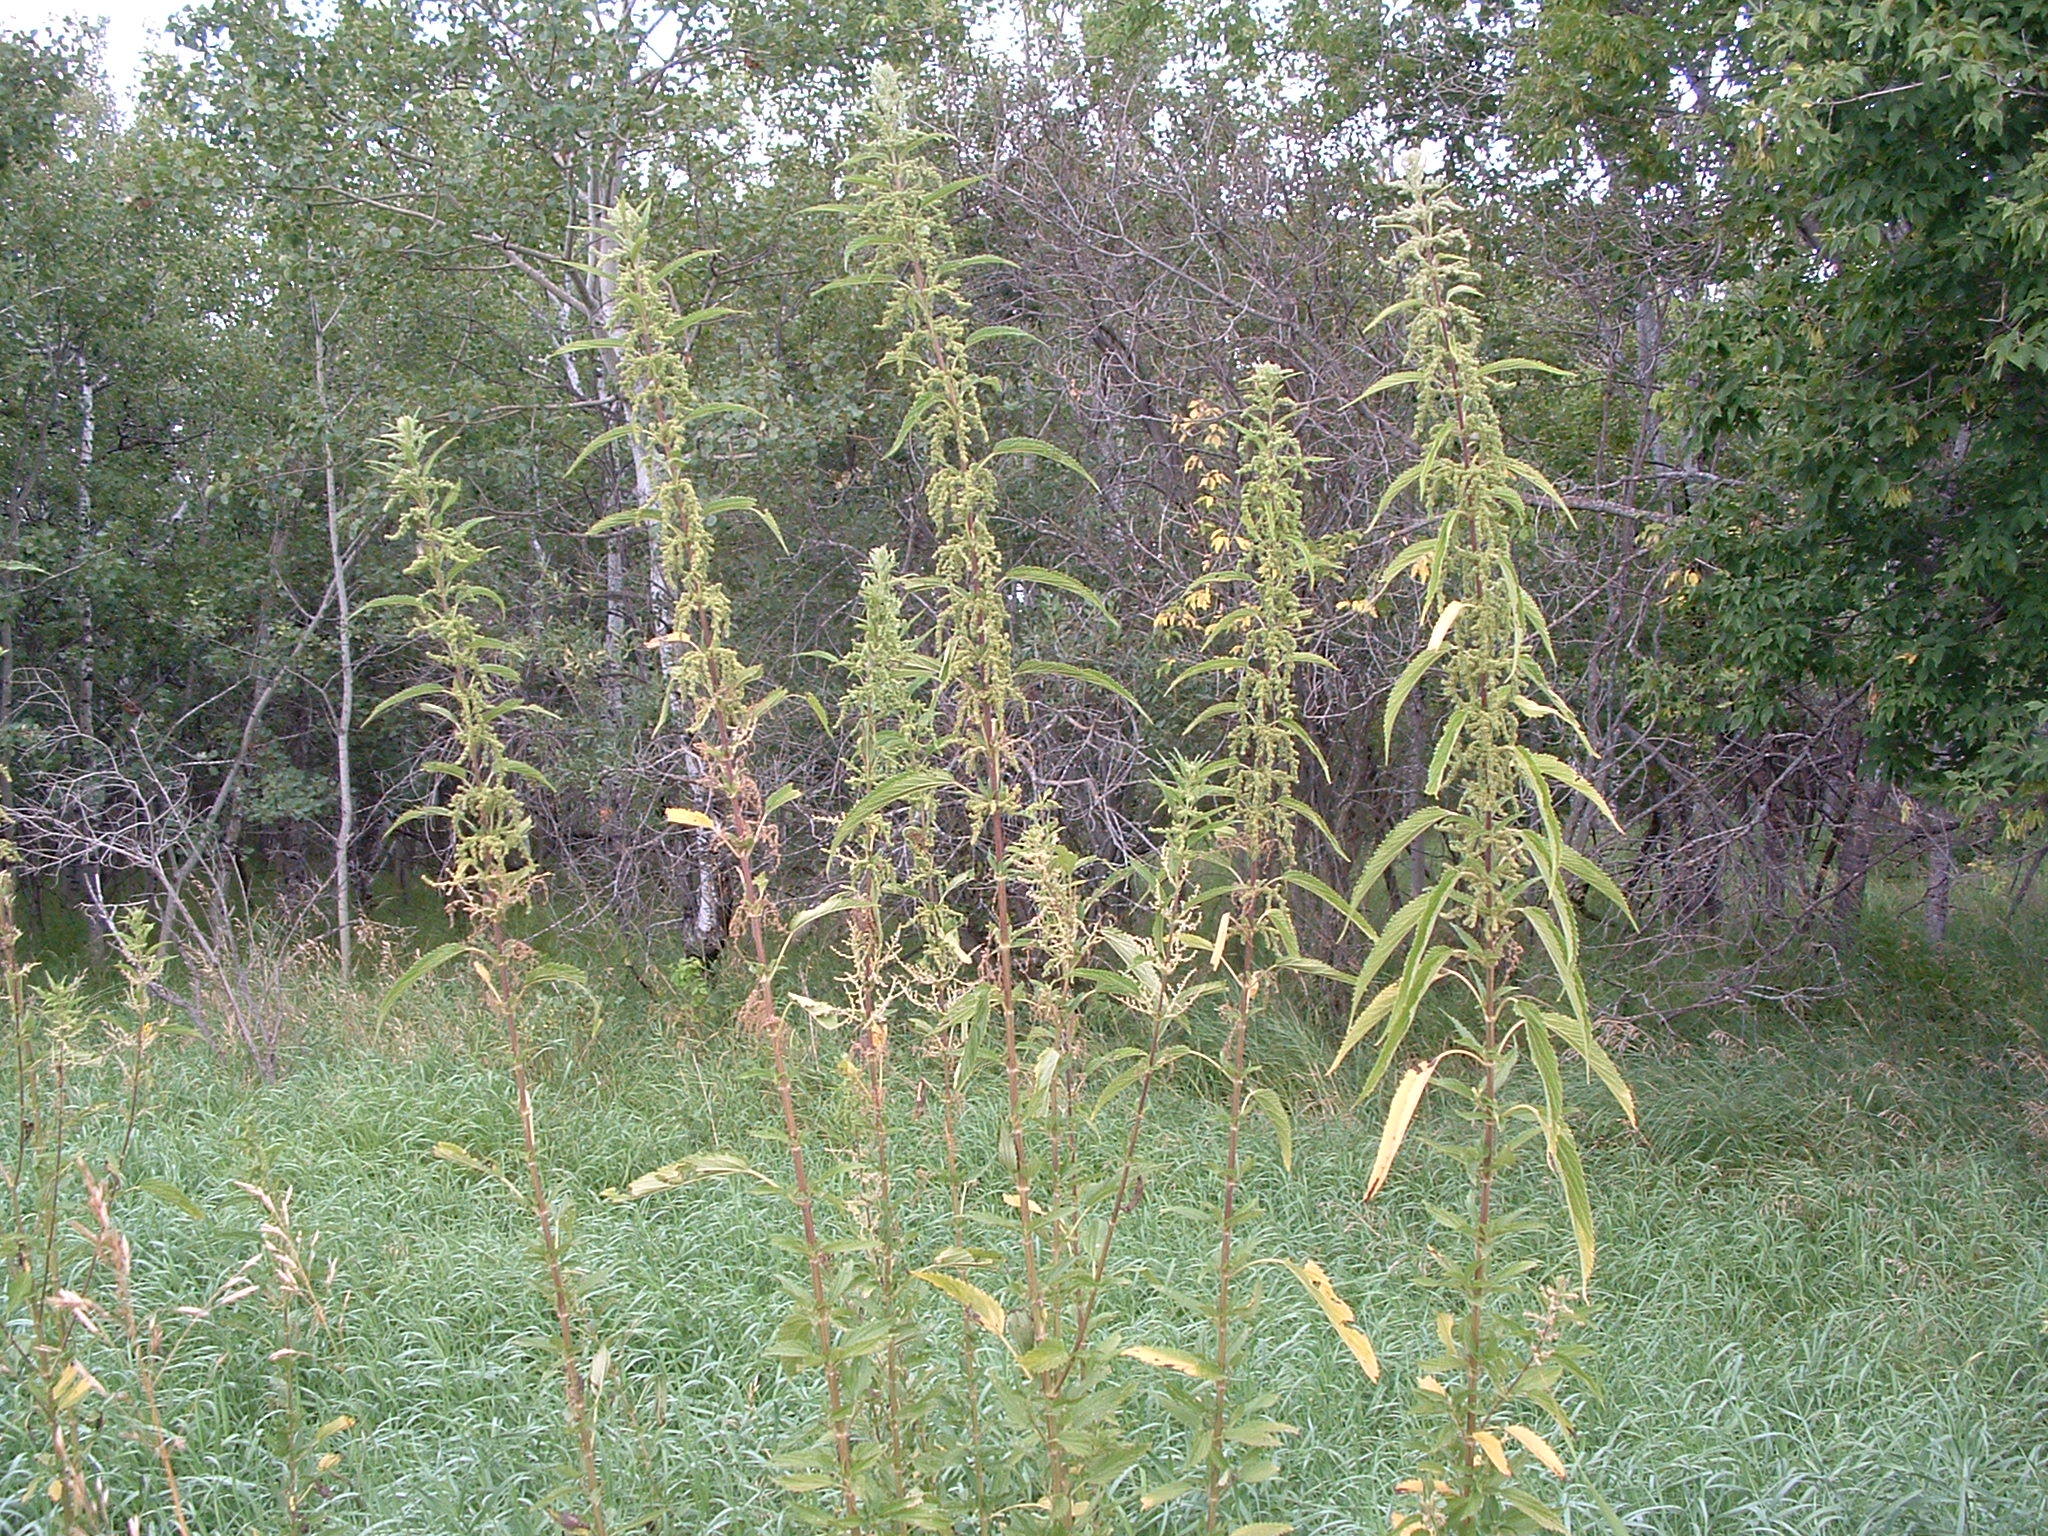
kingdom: Plantae
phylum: Tracheophyta
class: Magnoliopsida
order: Rosales
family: Urticaceae
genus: Urtica
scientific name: Urtica gracilis
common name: Slender stinging nettle
